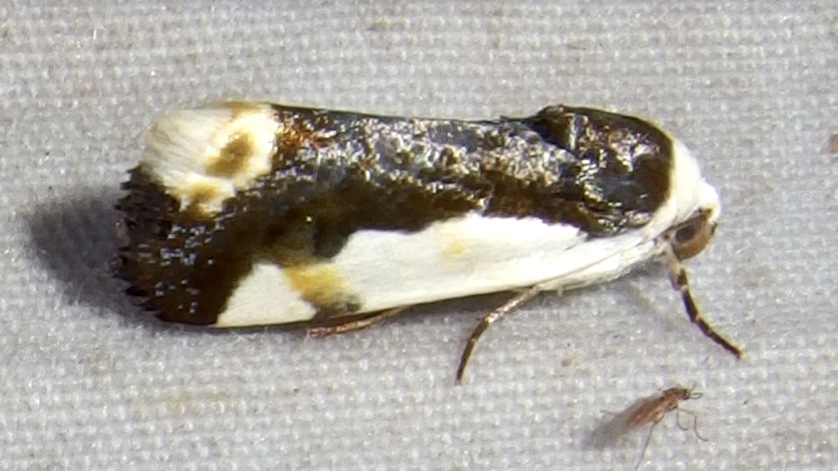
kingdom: Animalia
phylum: Arthropoda
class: Insecta
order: Lepidoptera
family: Noctuidae
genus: Acontia
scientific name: Acontia Tarache expolita
